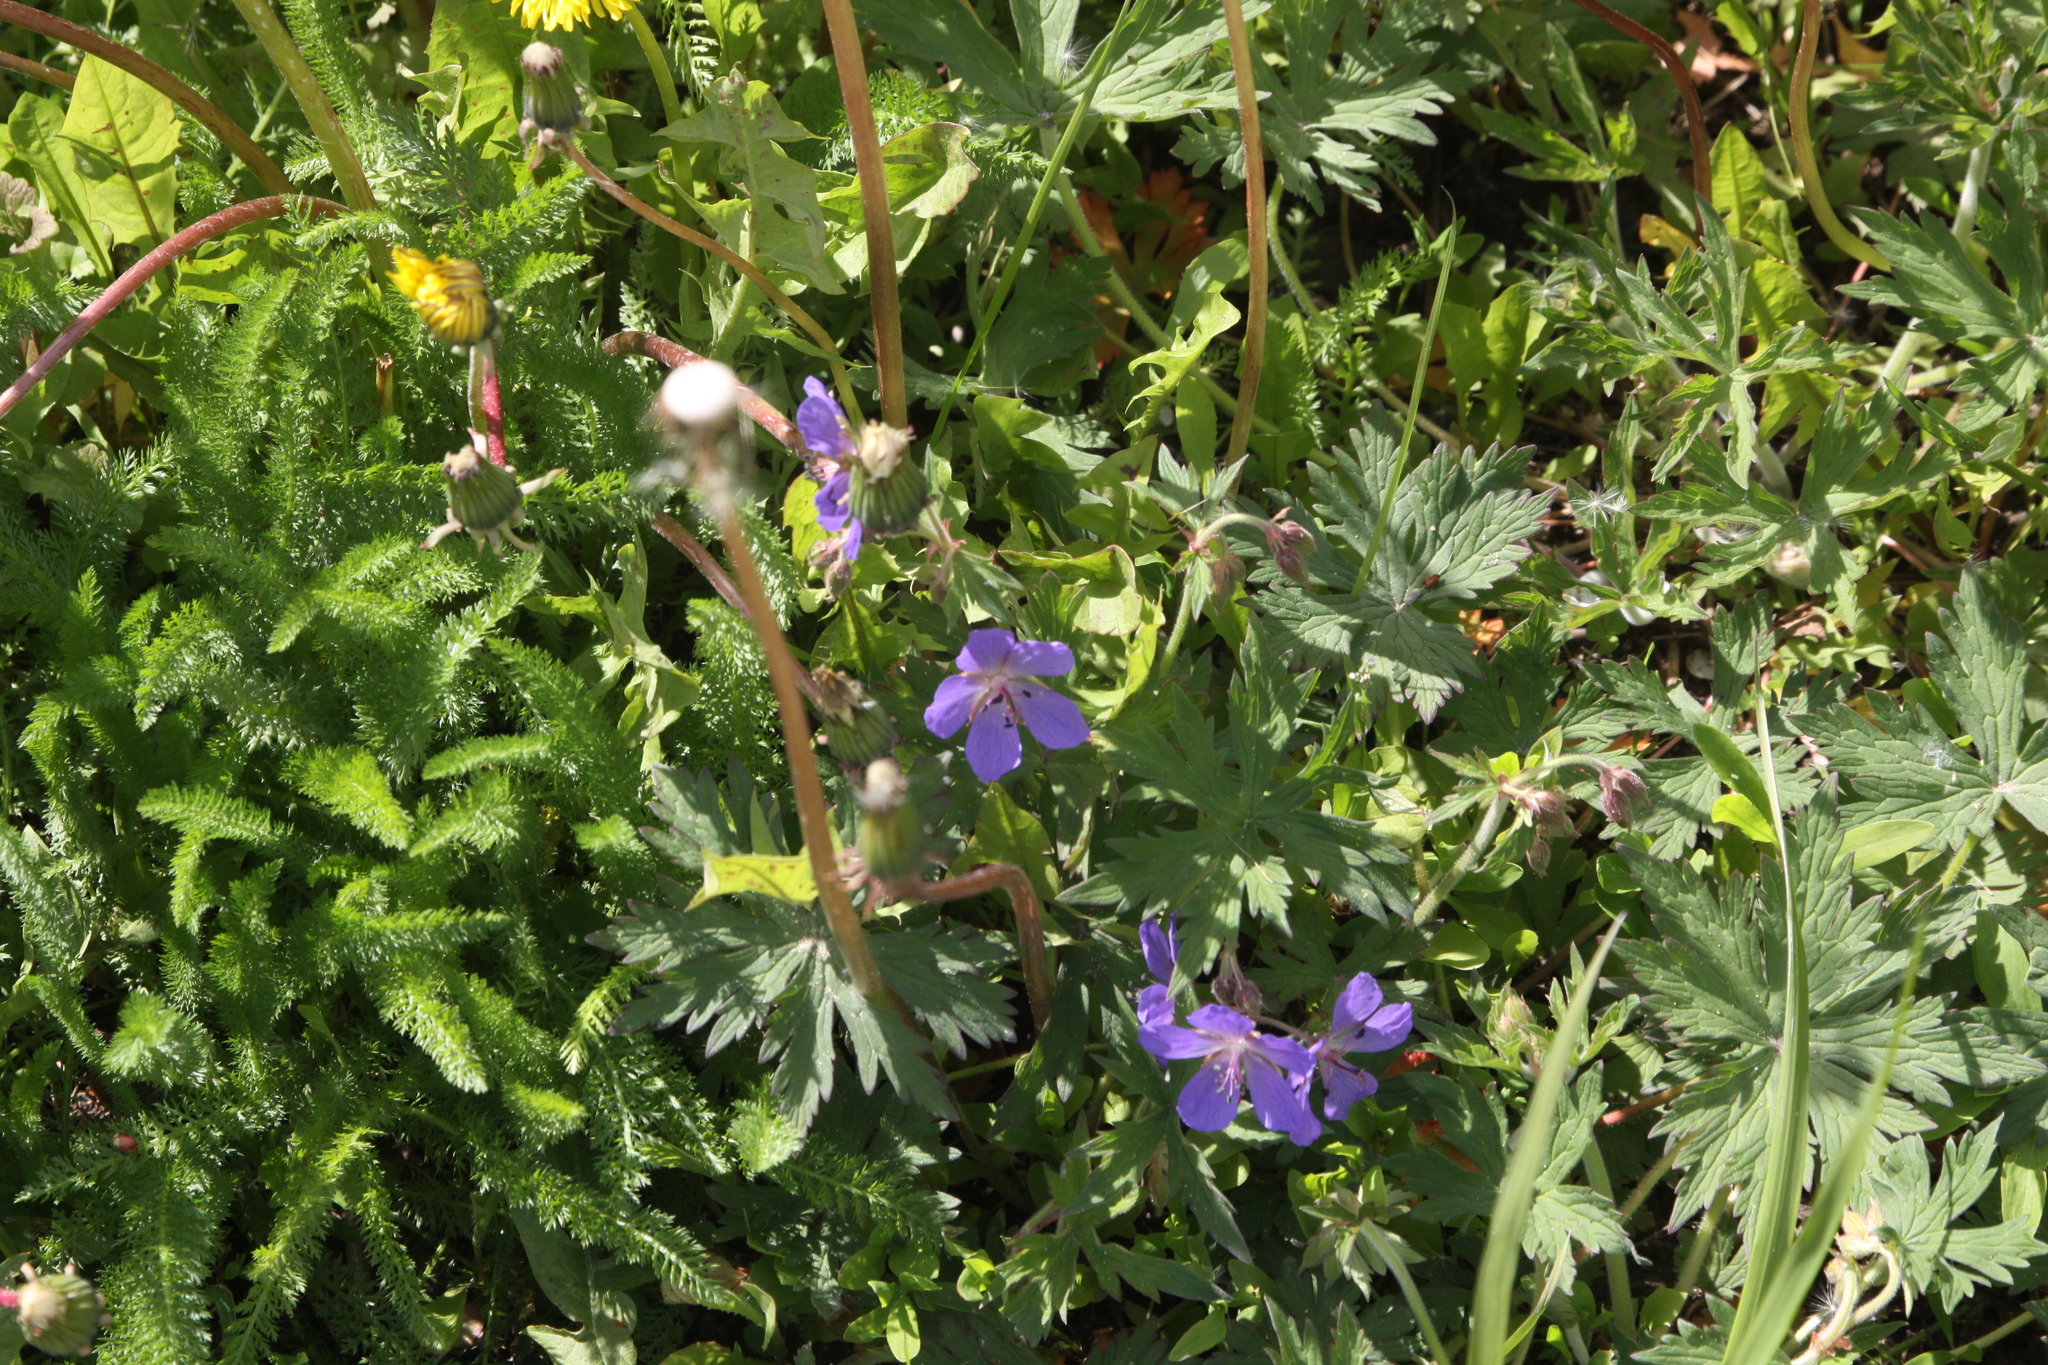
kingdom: Plantae
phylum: Tracheophyta
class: Magnoliopsida
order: Geraniales
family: Geraniaceae
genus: Geranium
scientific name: Geranium pratense
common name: Meadow crane's-bill
